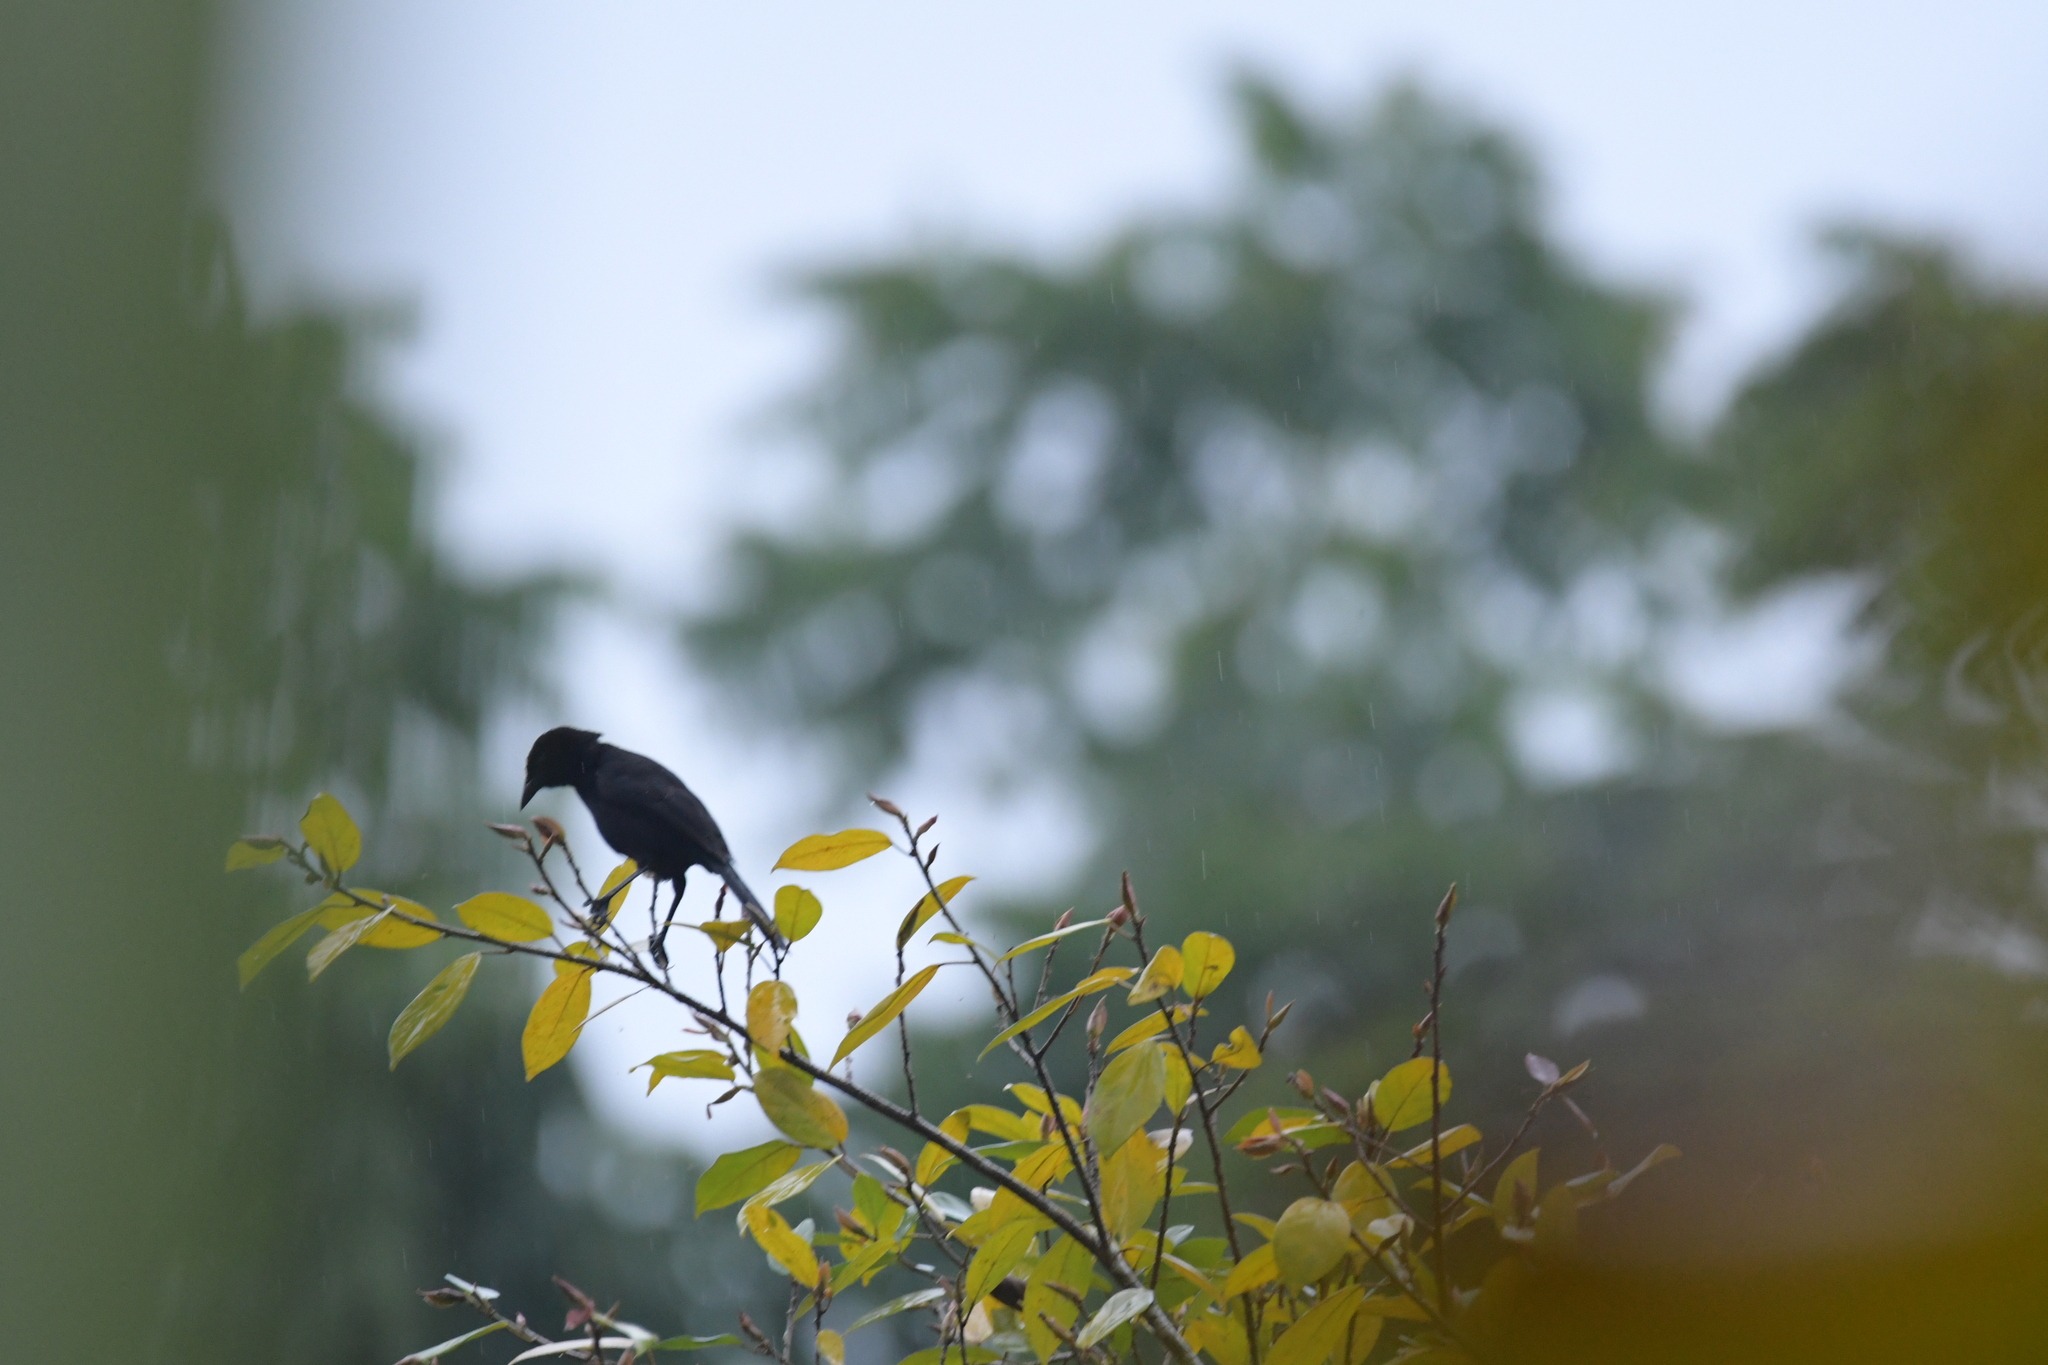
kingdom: Animalia
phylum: Chordata
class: Aves
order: Passeriformes
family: Icteridae
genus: Dives
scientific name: Dives dives
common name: Melodious blackbird
